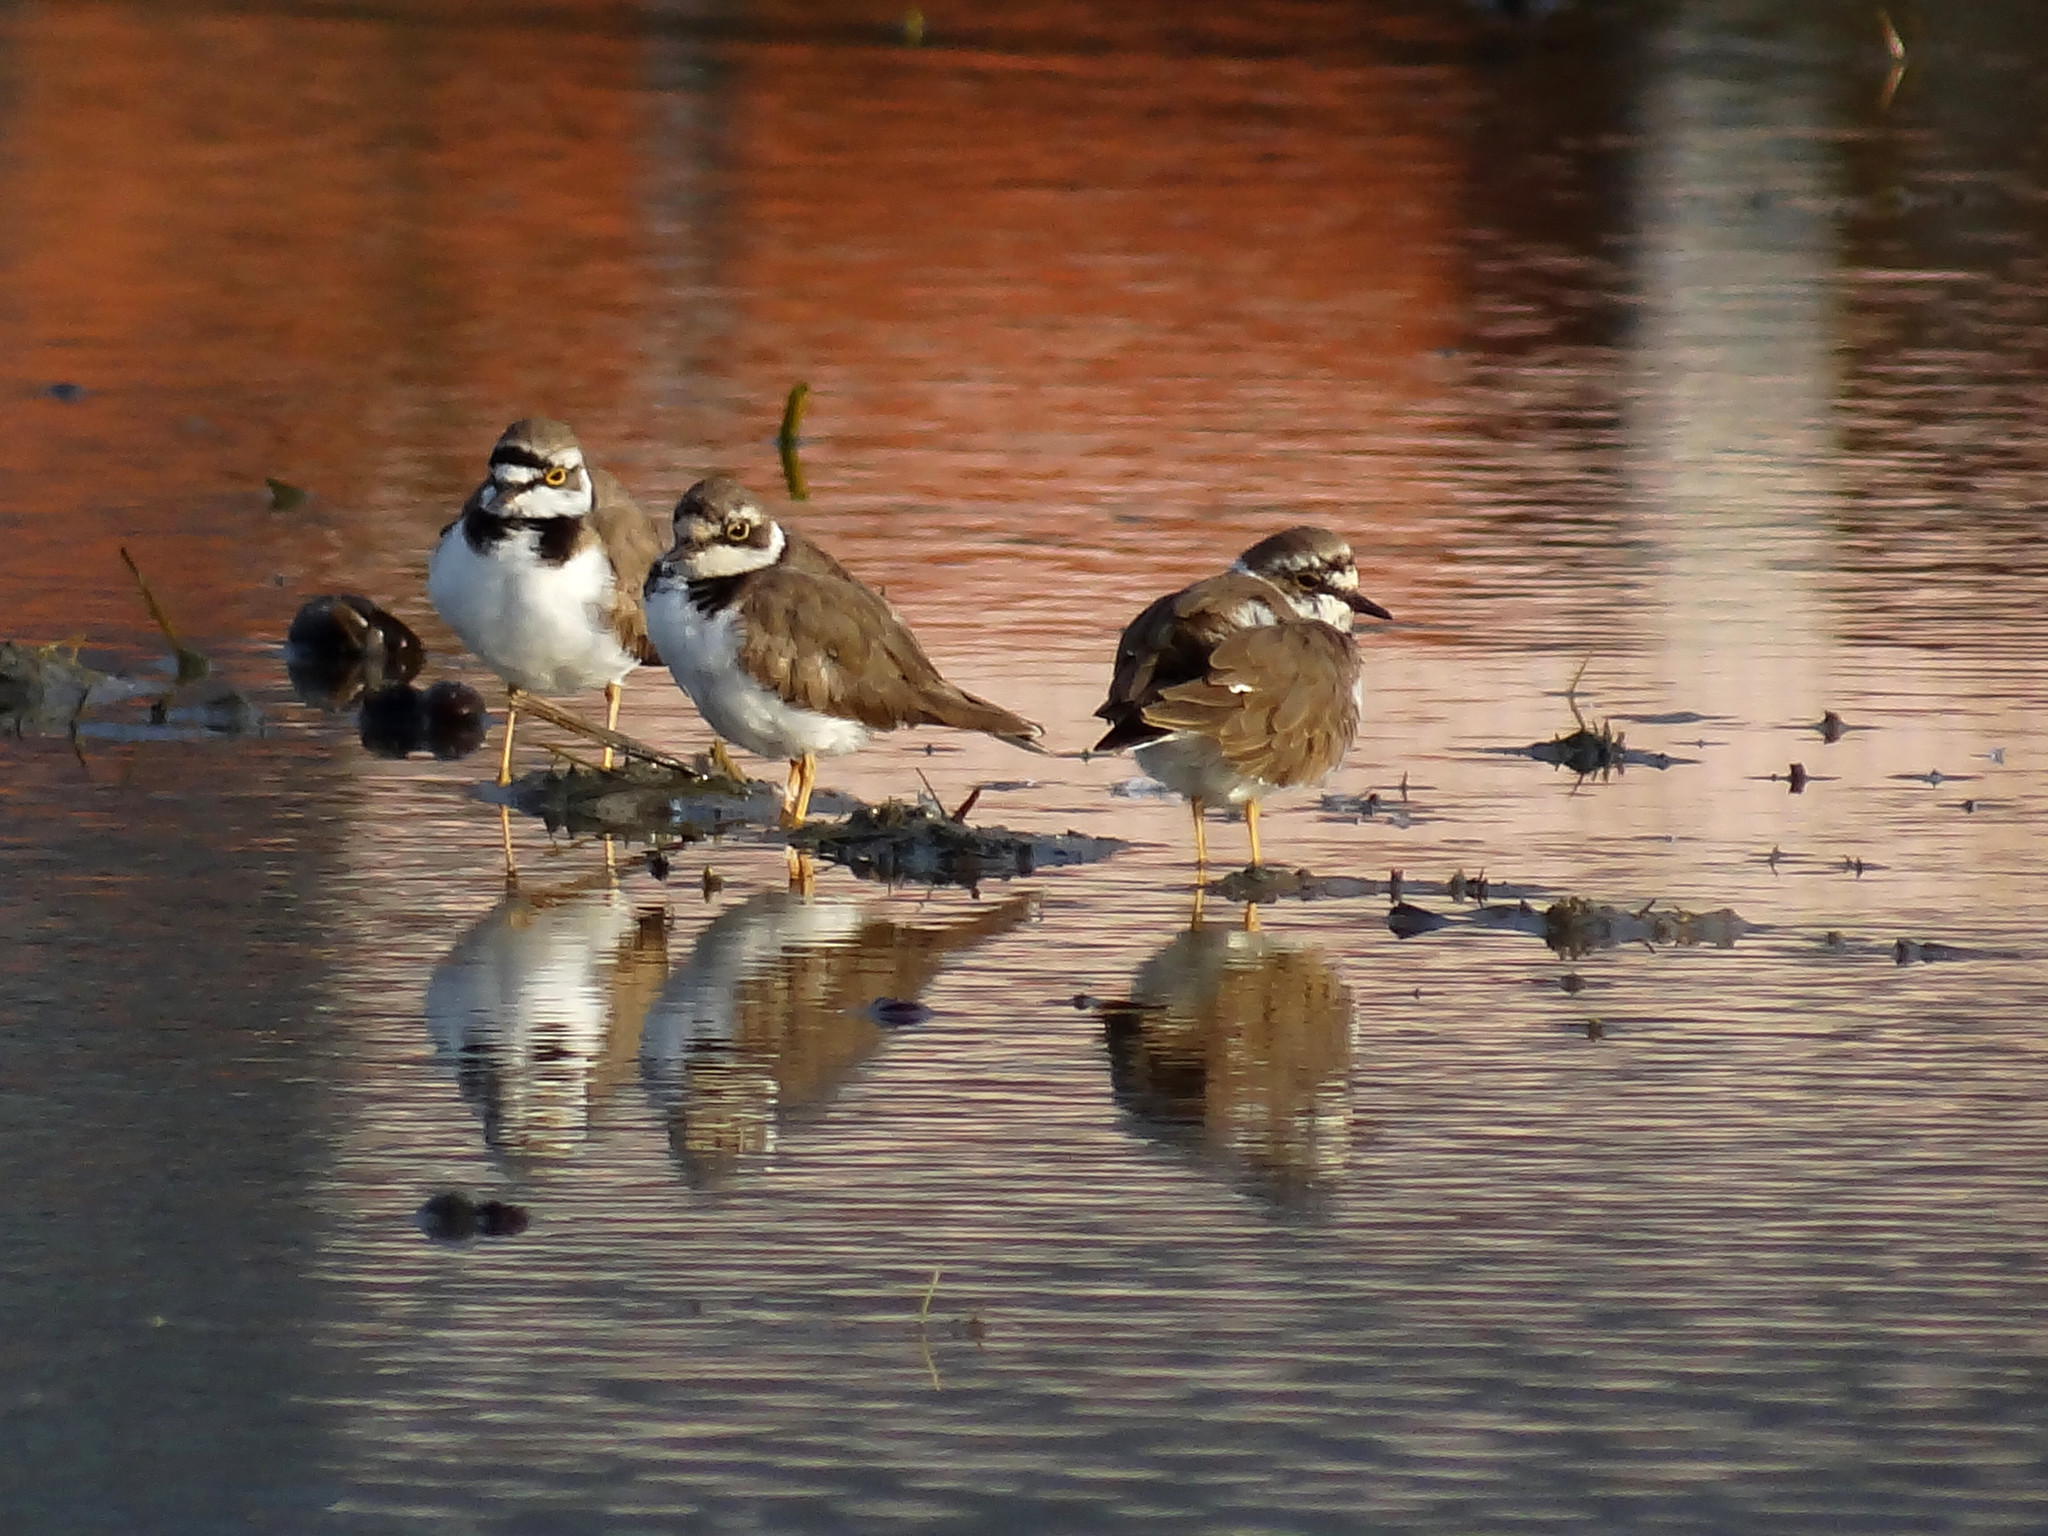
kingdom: Animalia
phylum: Chordata
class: Aves
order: Charadriiformes
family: Charadriidae
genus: Charadrius
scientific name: Charadrius dubius
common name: Little ringed plover
